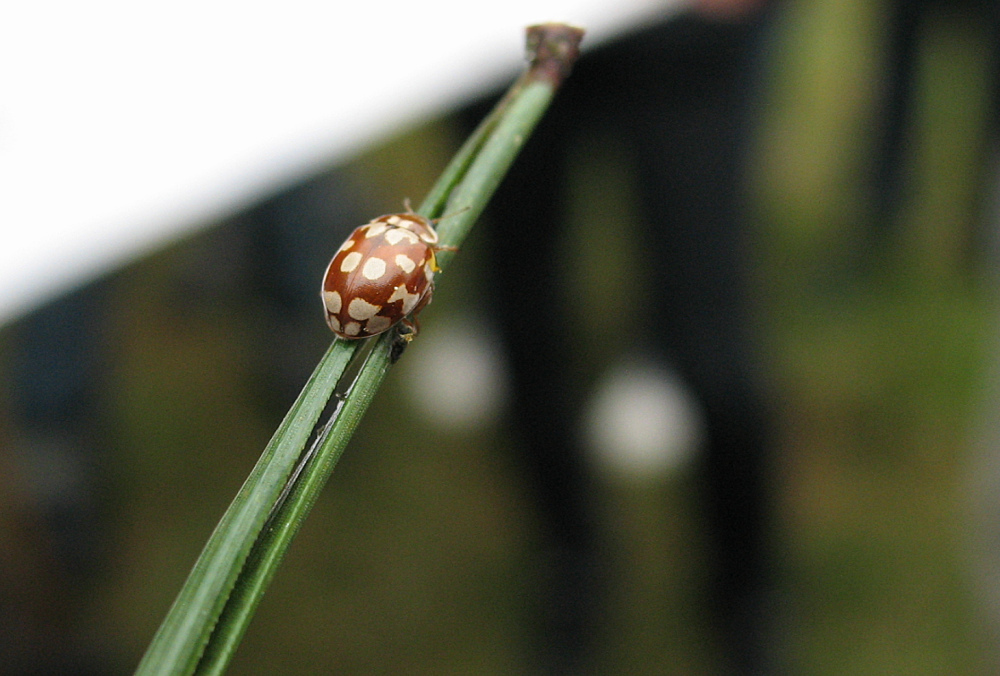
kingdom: Animalia
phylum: Arthropoda
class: Insecta
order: Coleoptera
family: Coccinellidae
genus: Myrrha
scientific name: Myrrha octodecimguttata
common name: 18-spot ladybird
